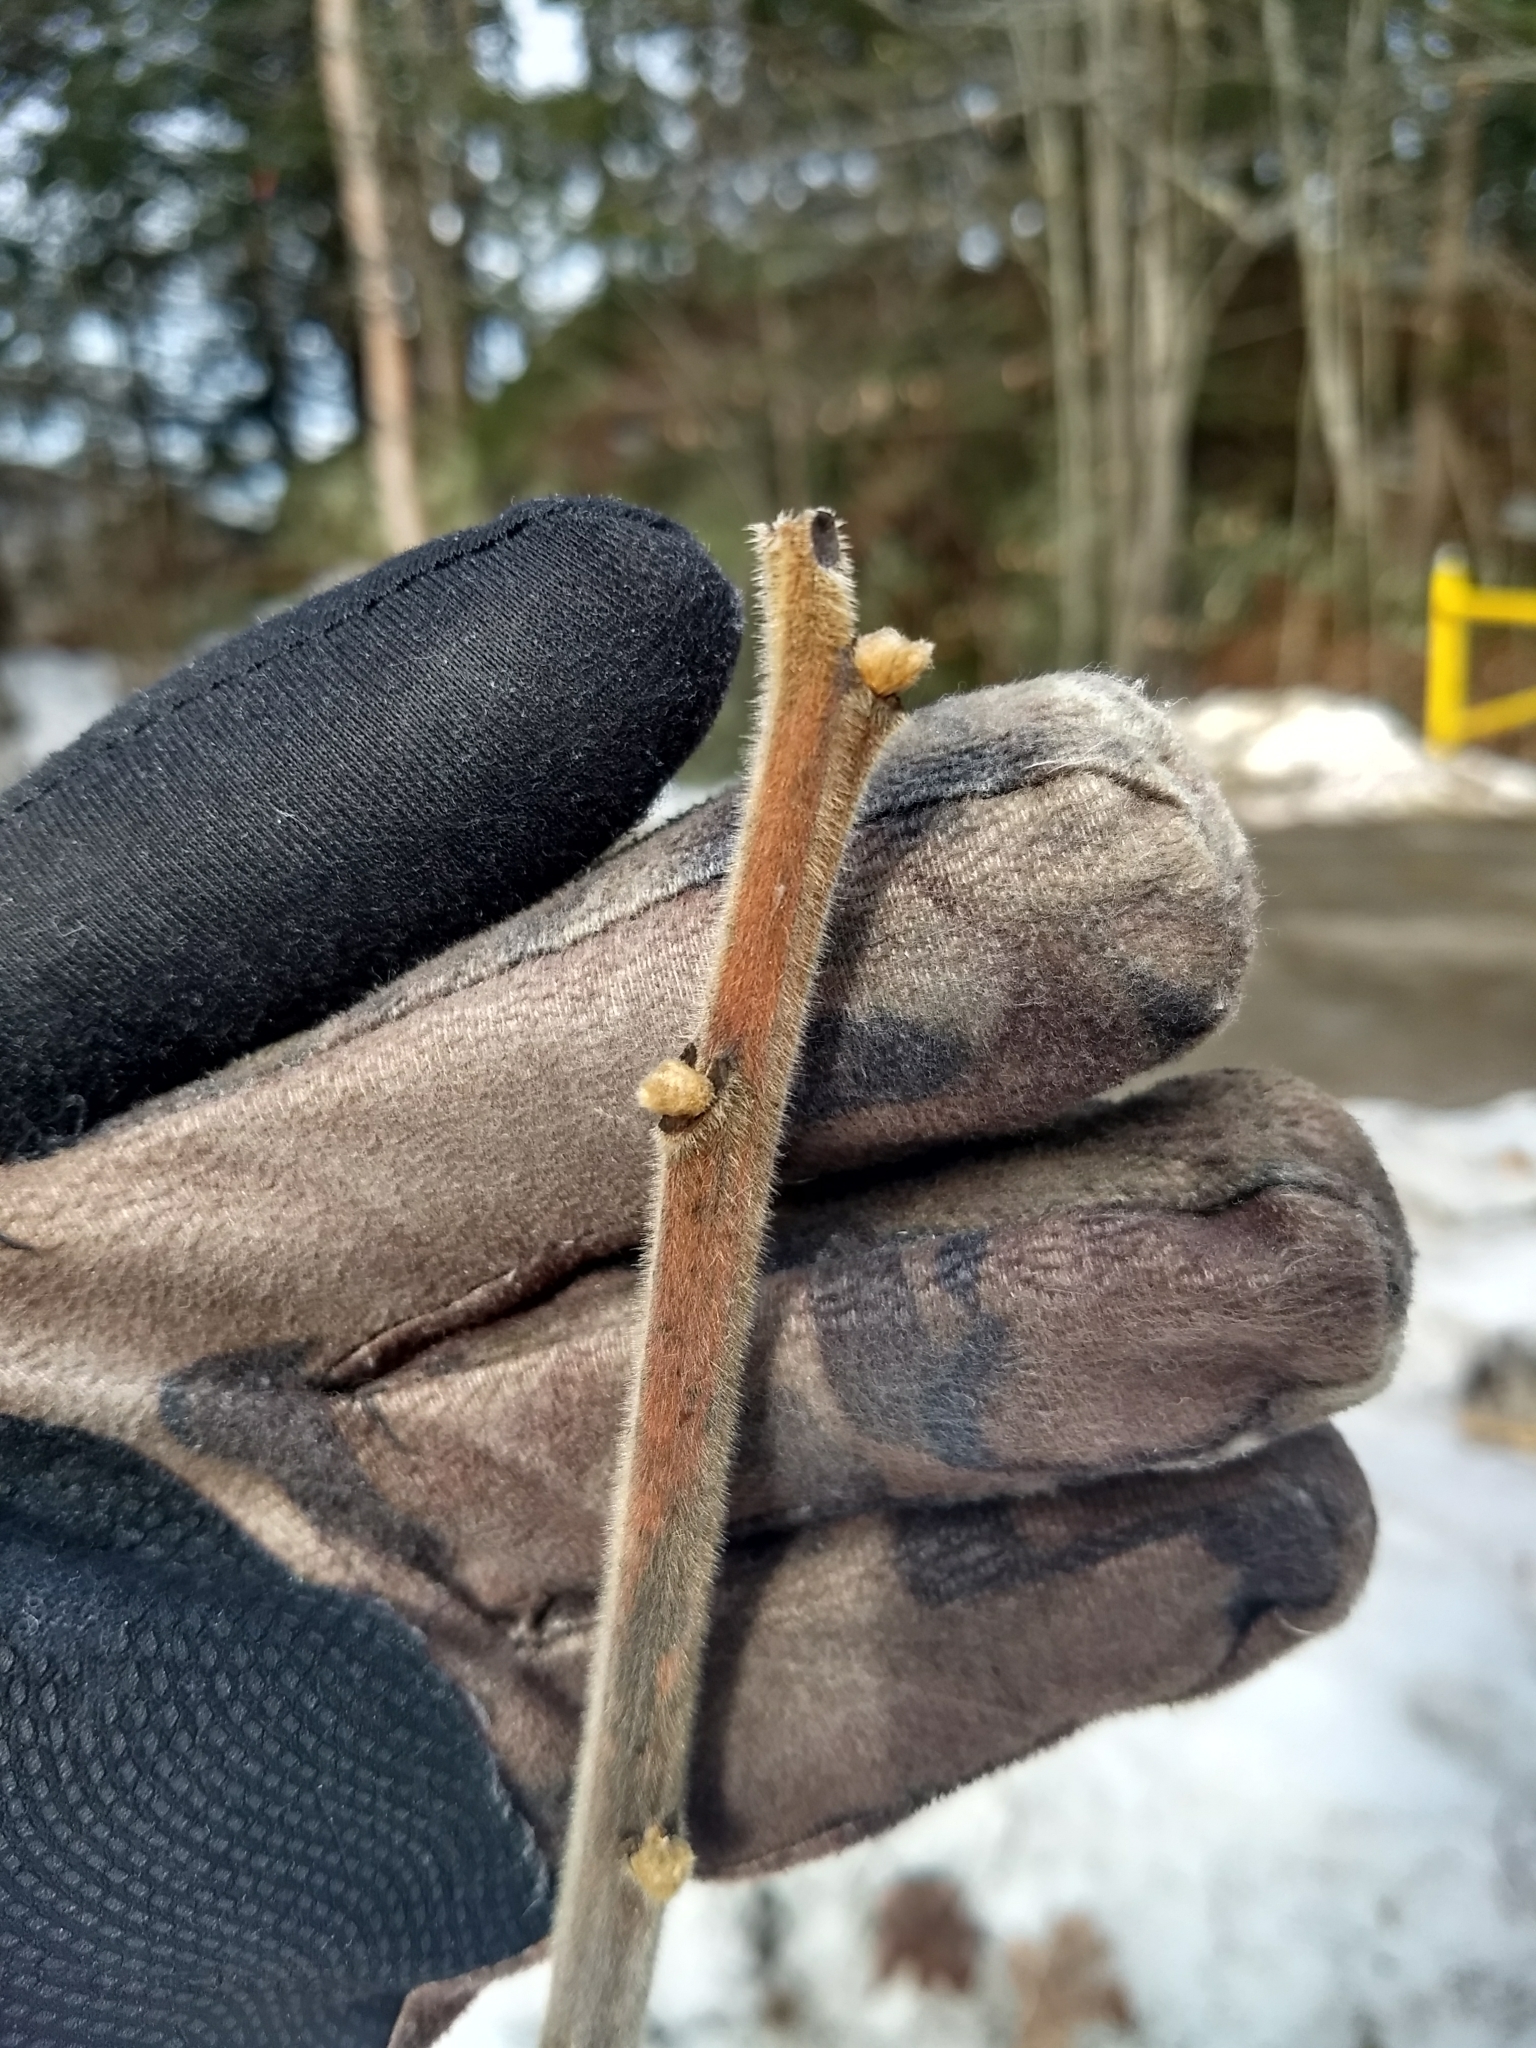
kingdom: Plantae
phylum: Tracheophyta
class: Magnoliopsida
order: Sapindales
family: Anacardiaceae
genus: Rhus
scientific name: Rhus typhina
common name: Staghorn sumac
